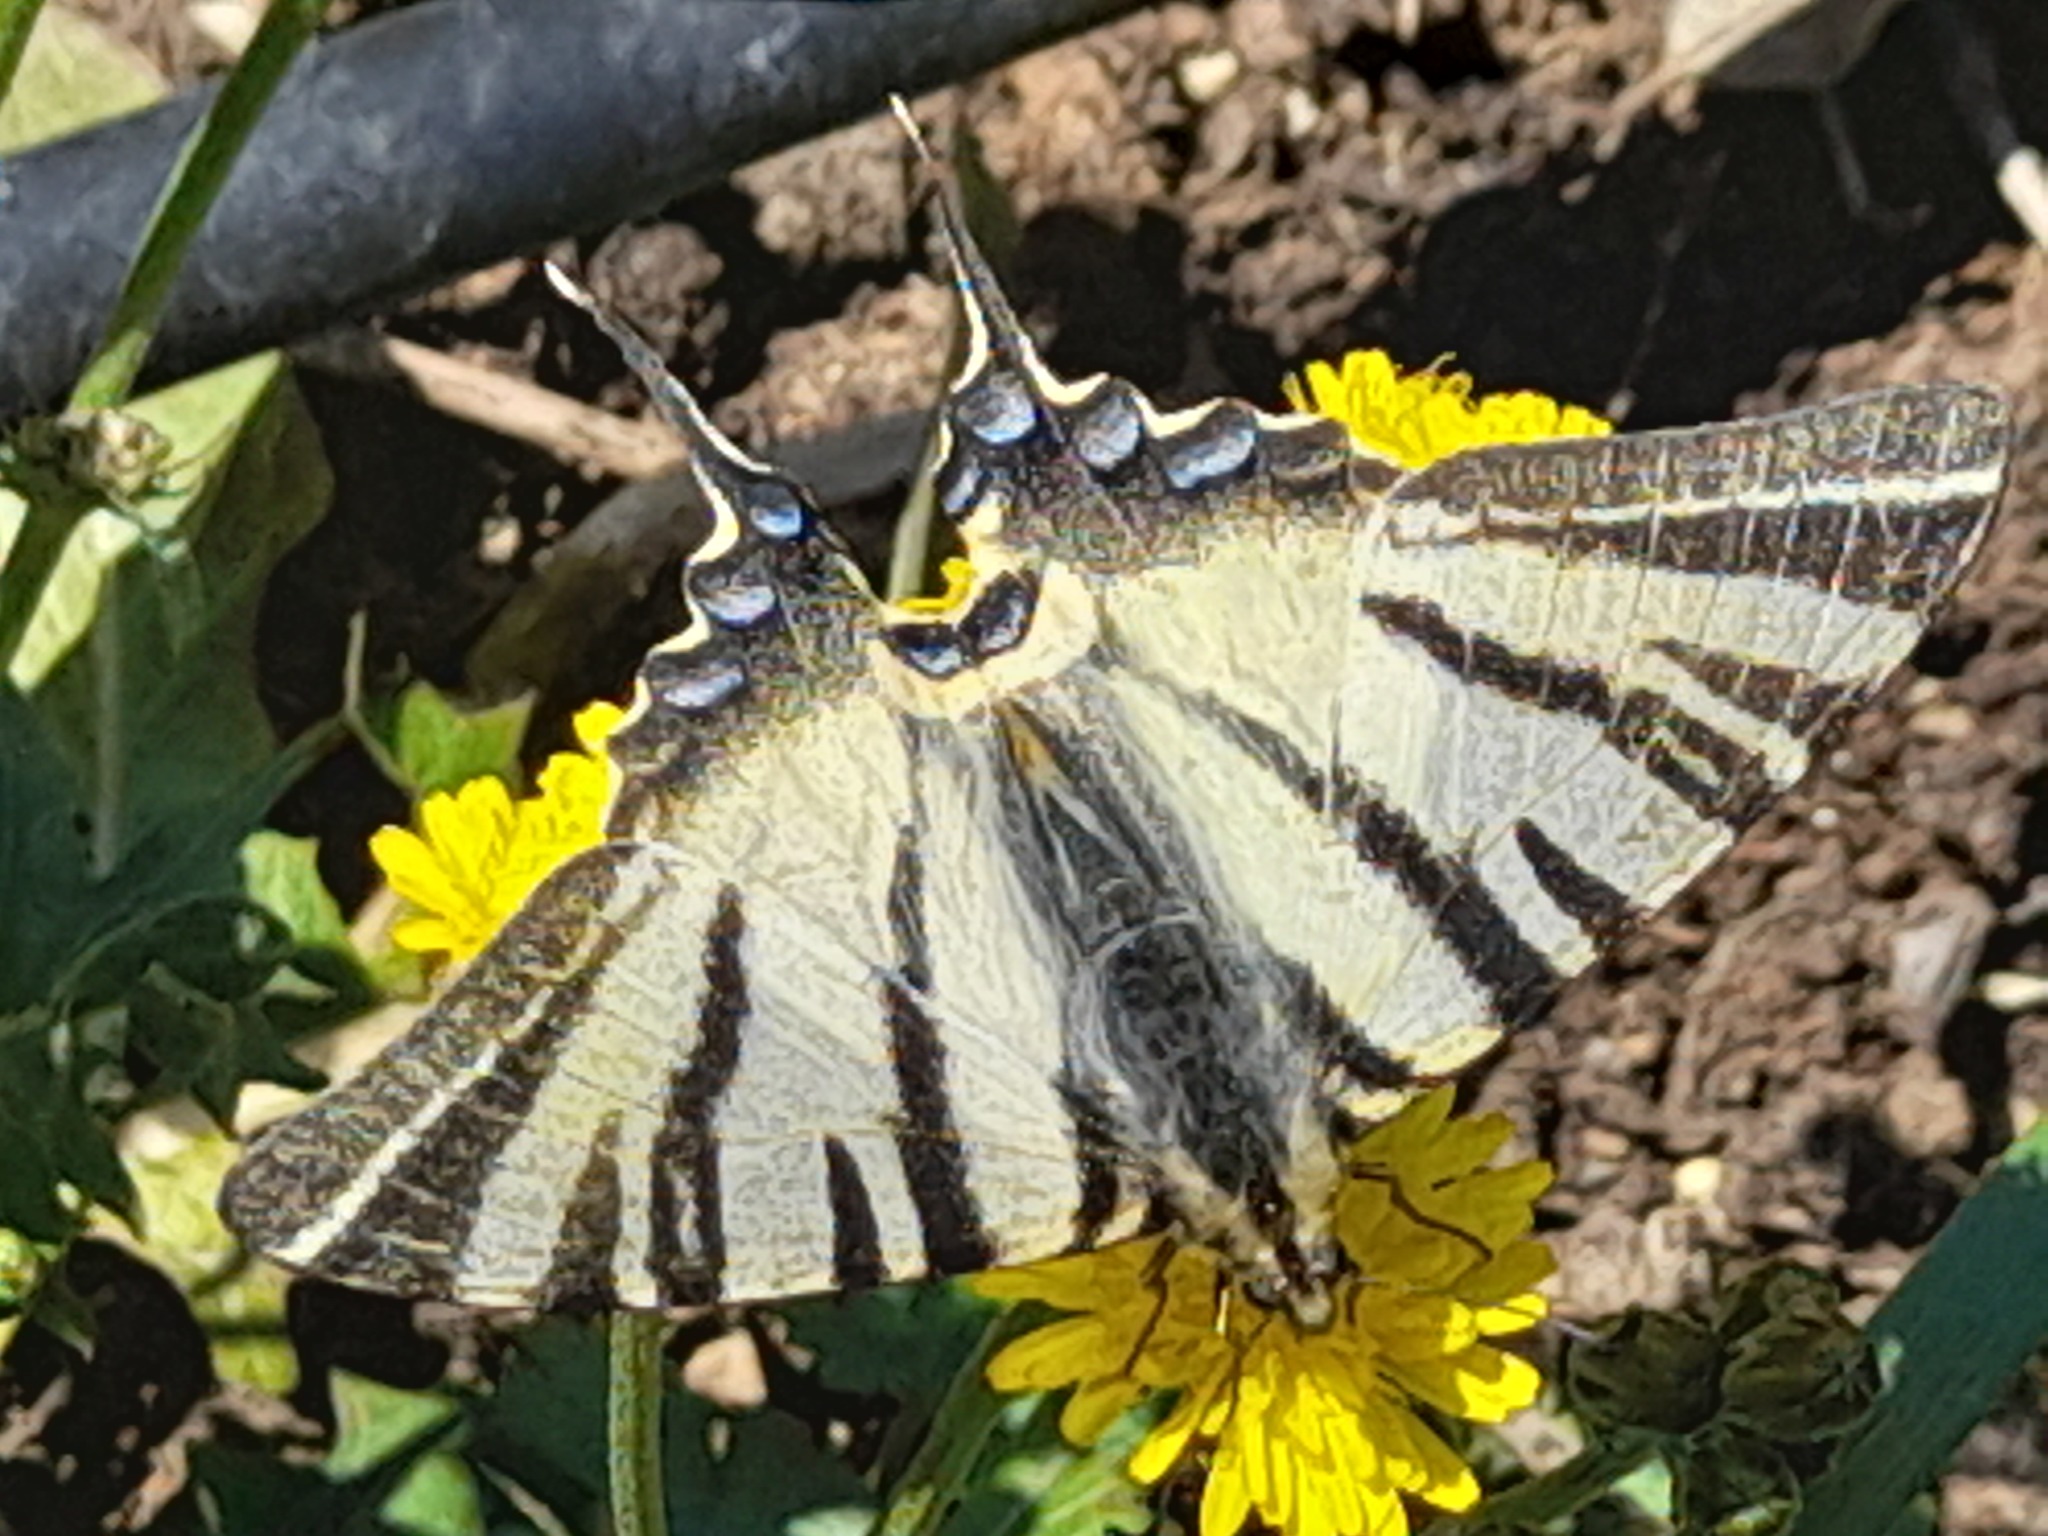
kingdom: Animalia
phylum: Arthropoda
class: Insecta
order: Lepidoptera
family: Papilionidae
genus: Iphiclides
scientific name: Iphiclides podalirius
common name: Scarce swallowtail
